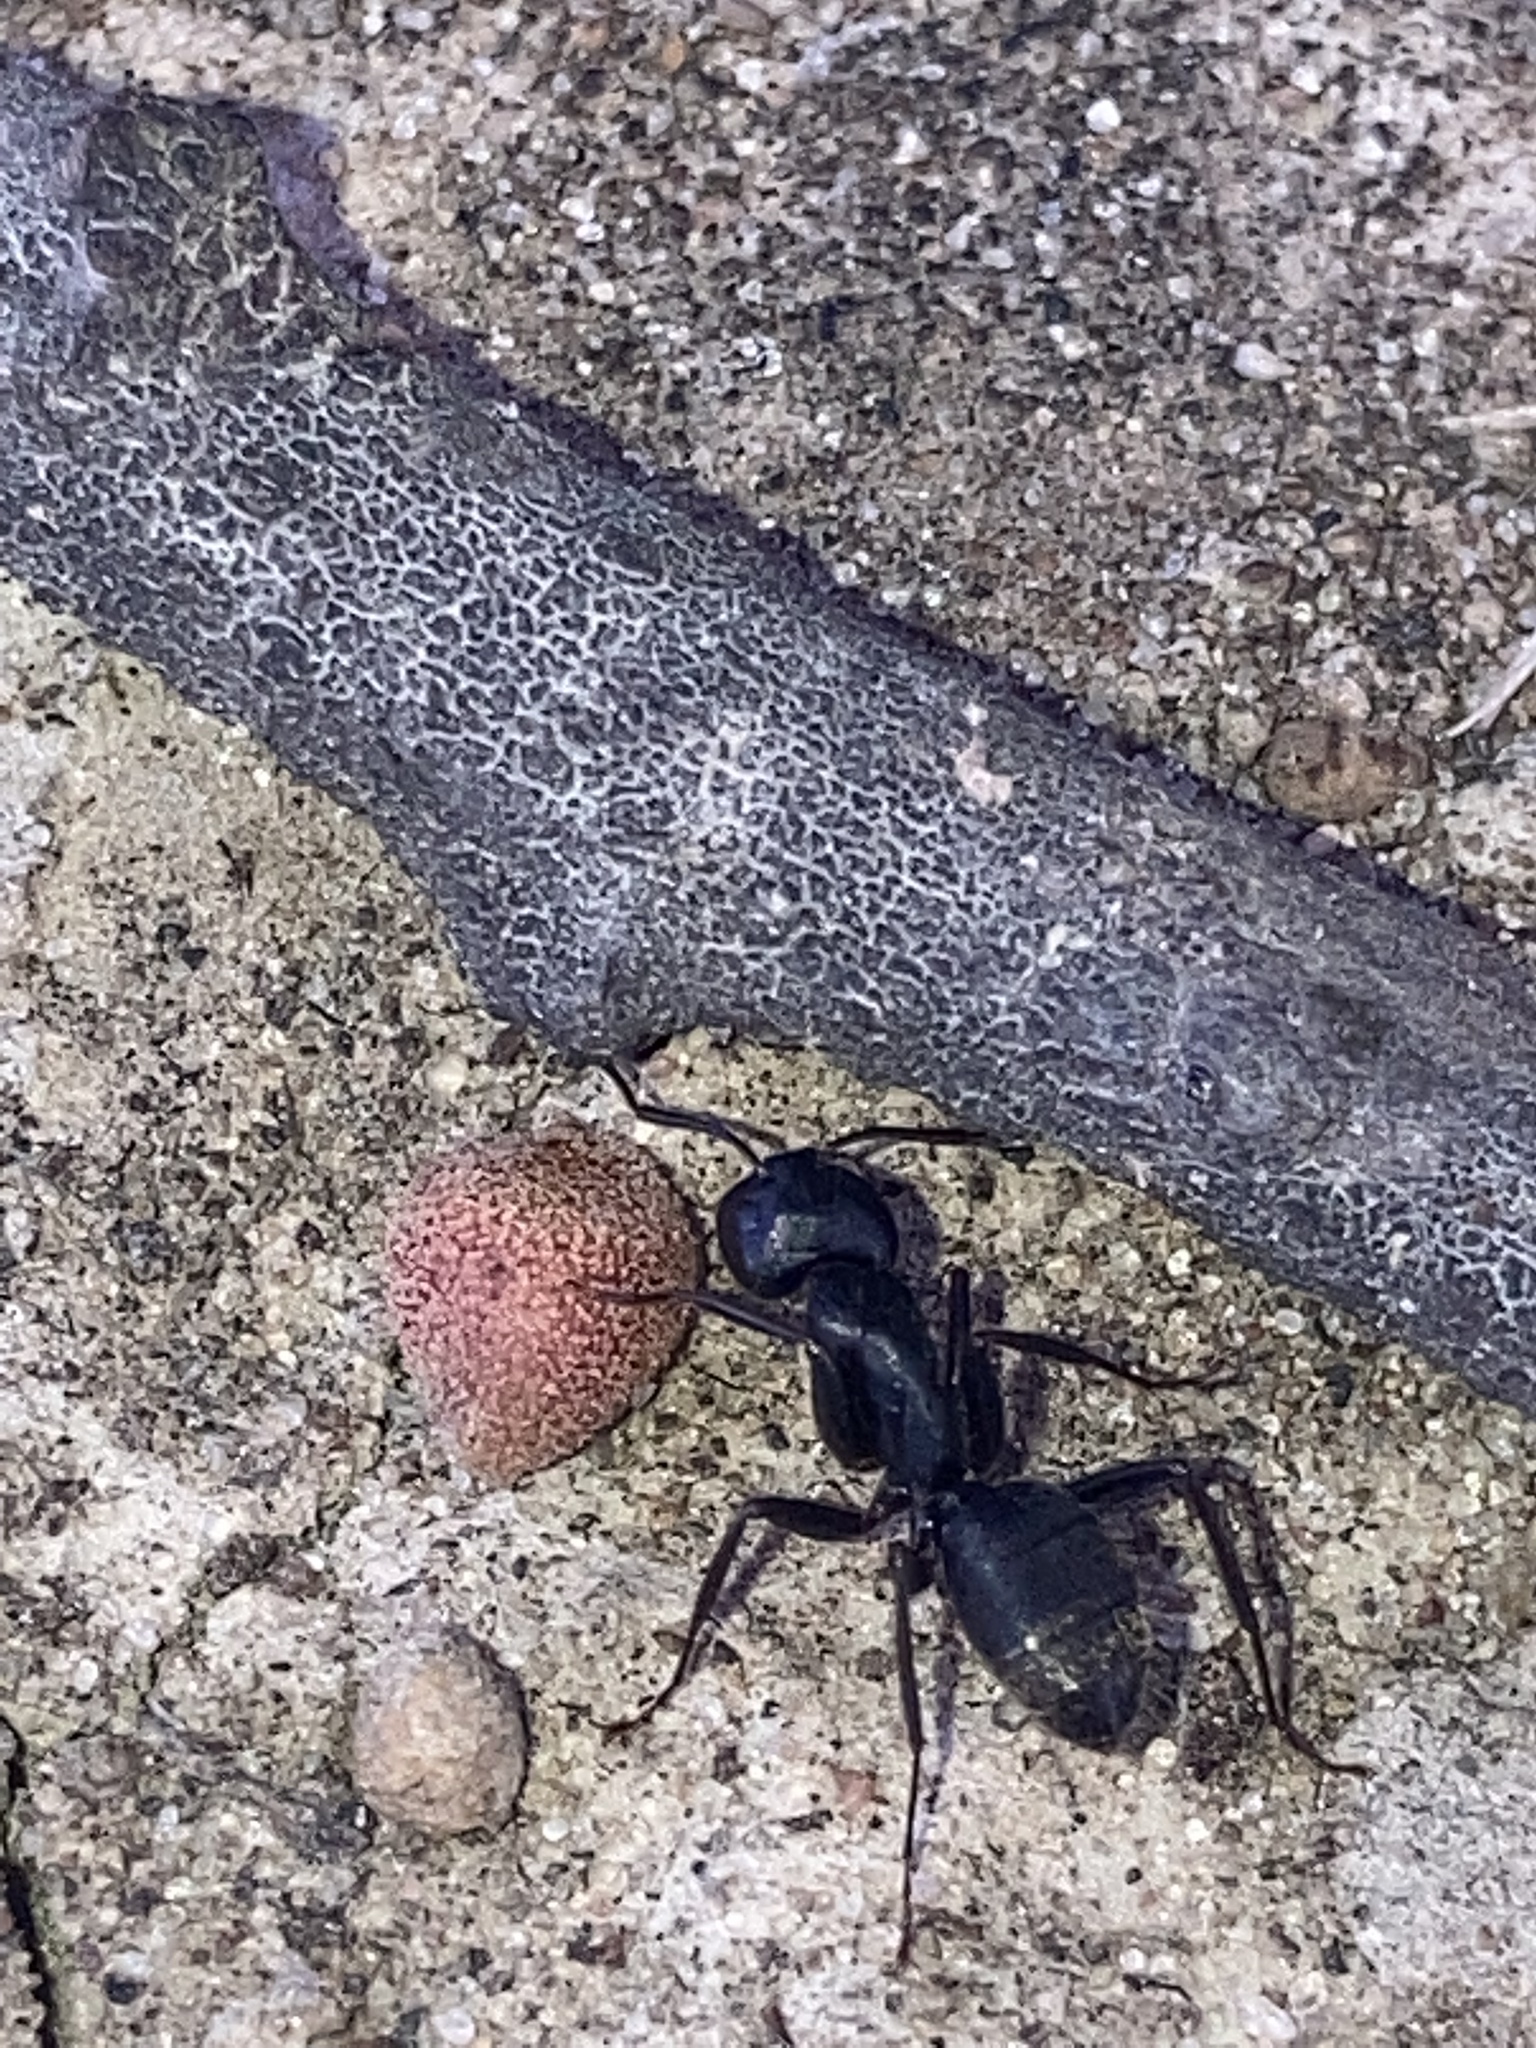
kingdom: Animalia
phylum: Arthropoda
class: Insecta
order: Hymenoptera
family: Formicidae
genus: Camponotus
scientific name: Camponotus pennsylvanicus
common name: Black carpenter ant
